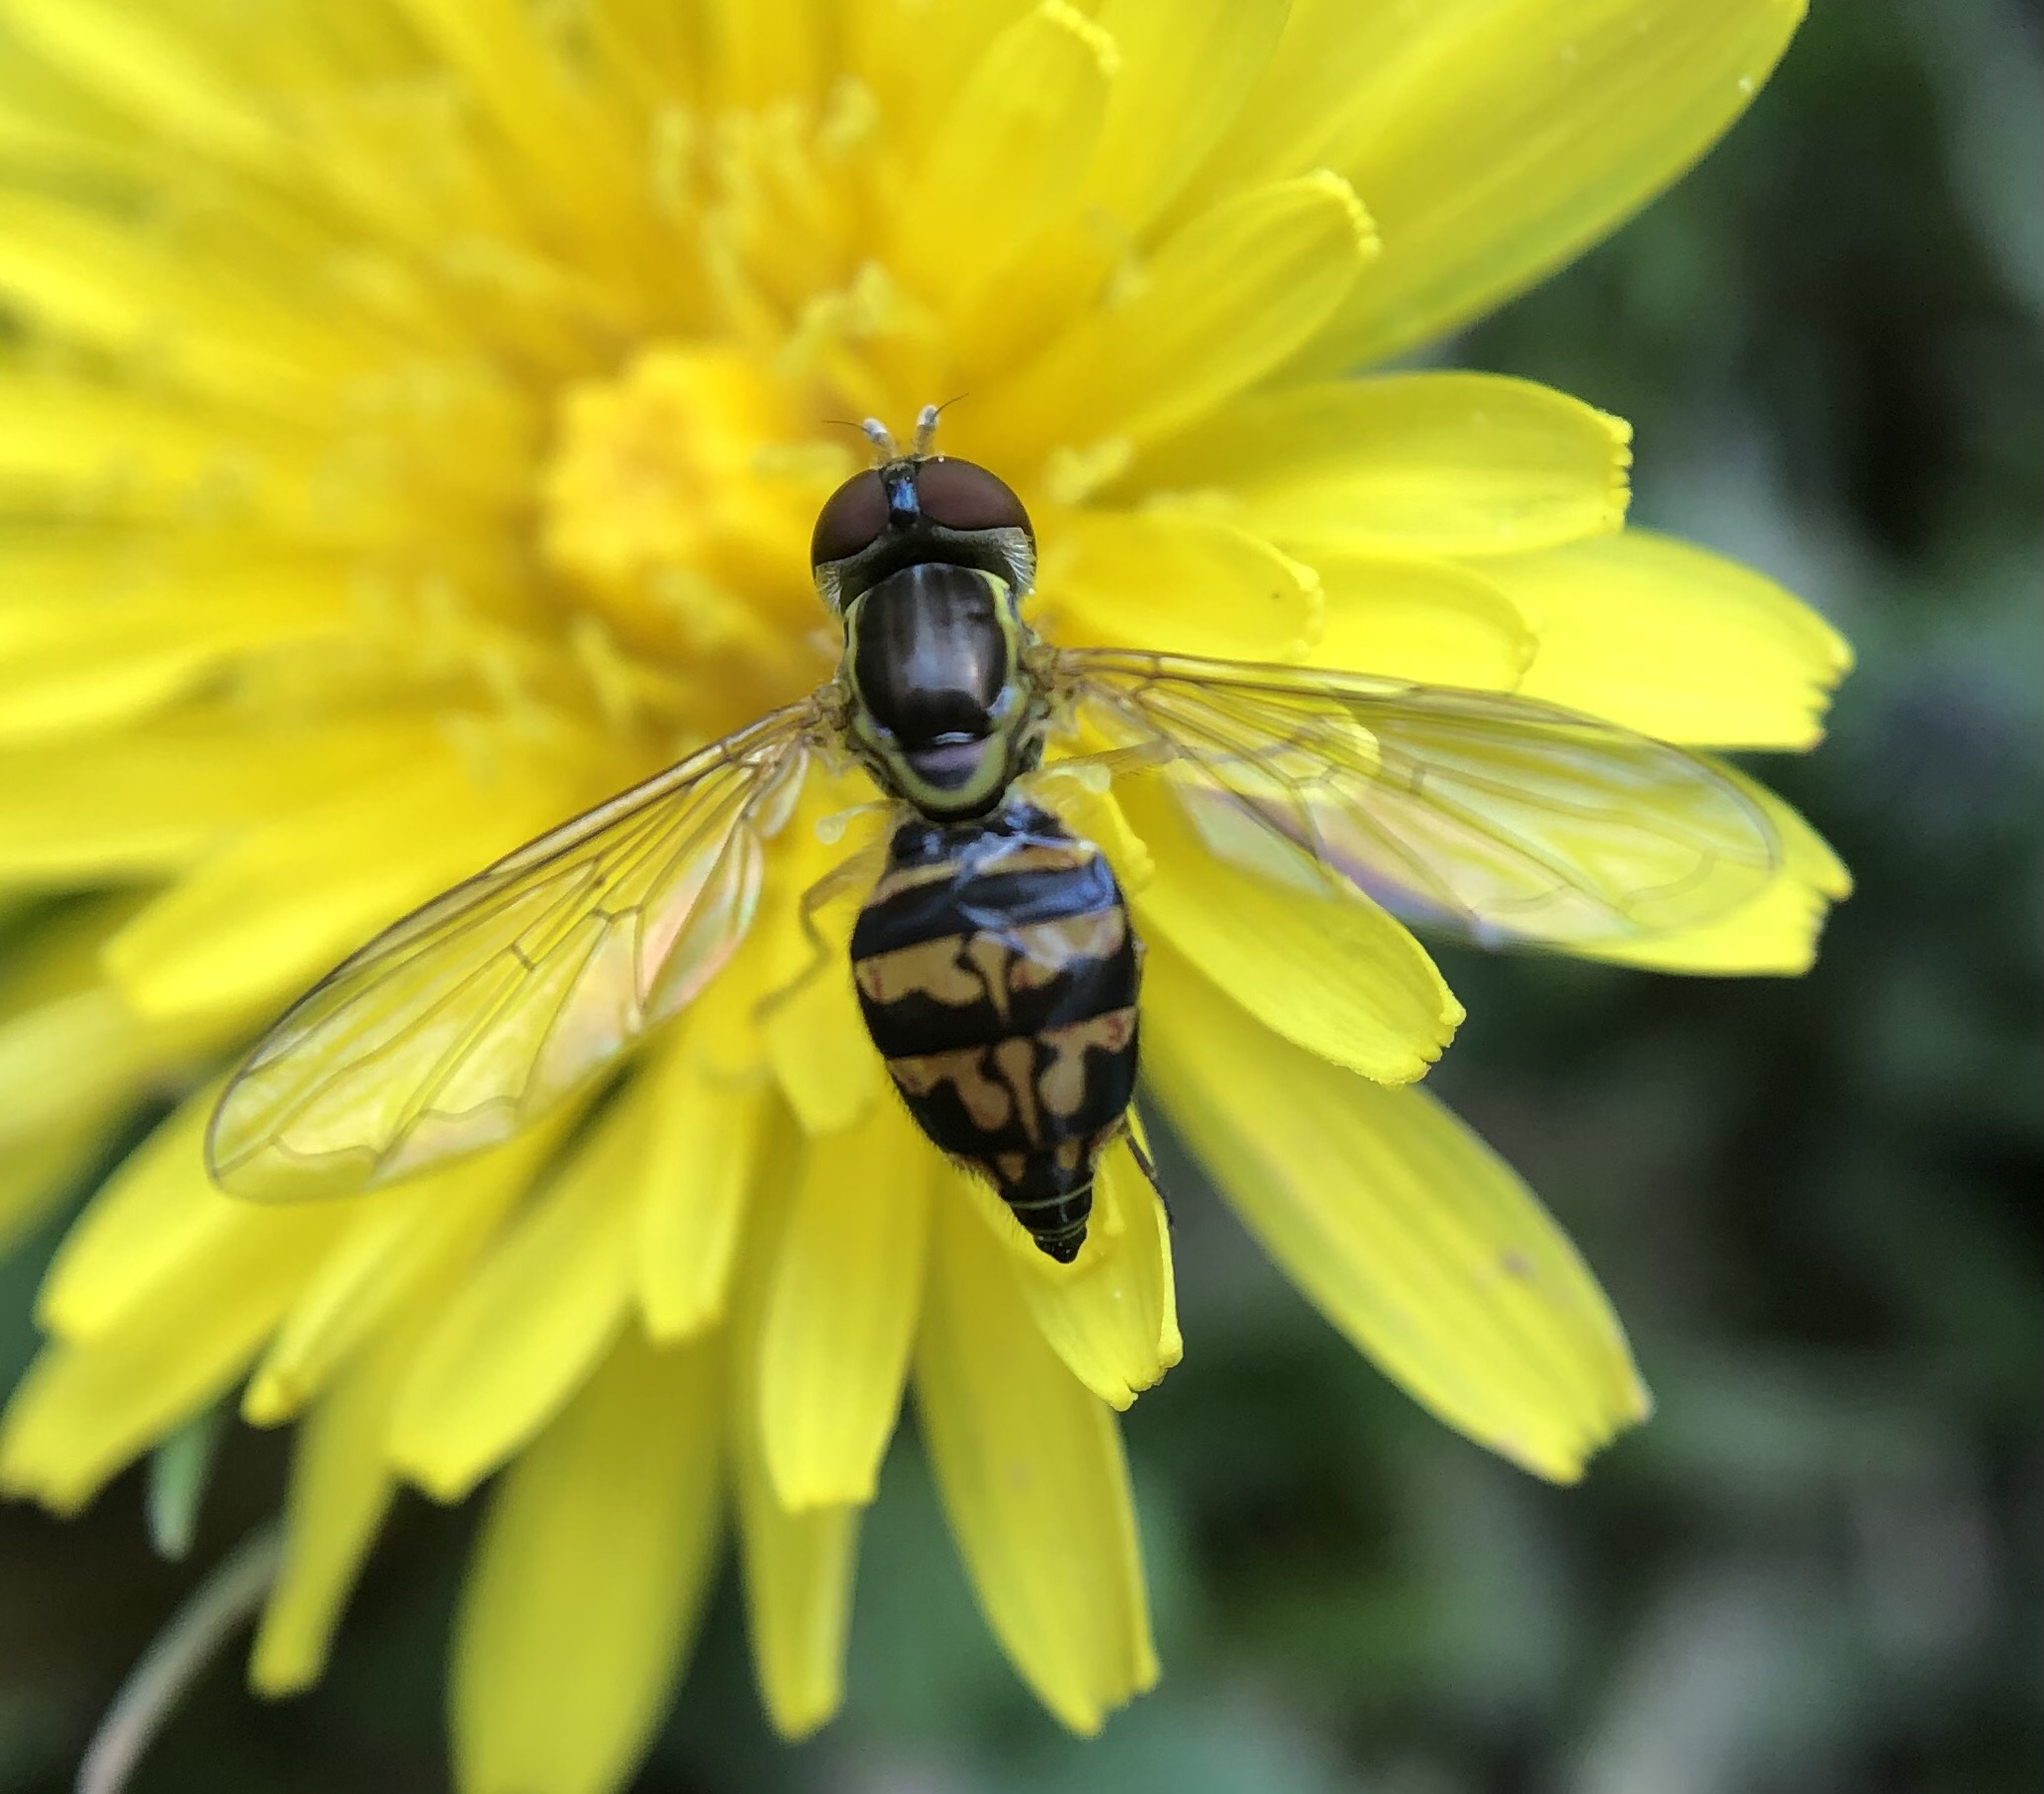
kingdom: Animalia
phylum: Arthropoda
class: Insecta
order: Diptera
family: Syrphidae
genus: Toxomerus
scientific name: Toxomerus geminatus
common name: Eastern calligrapher
